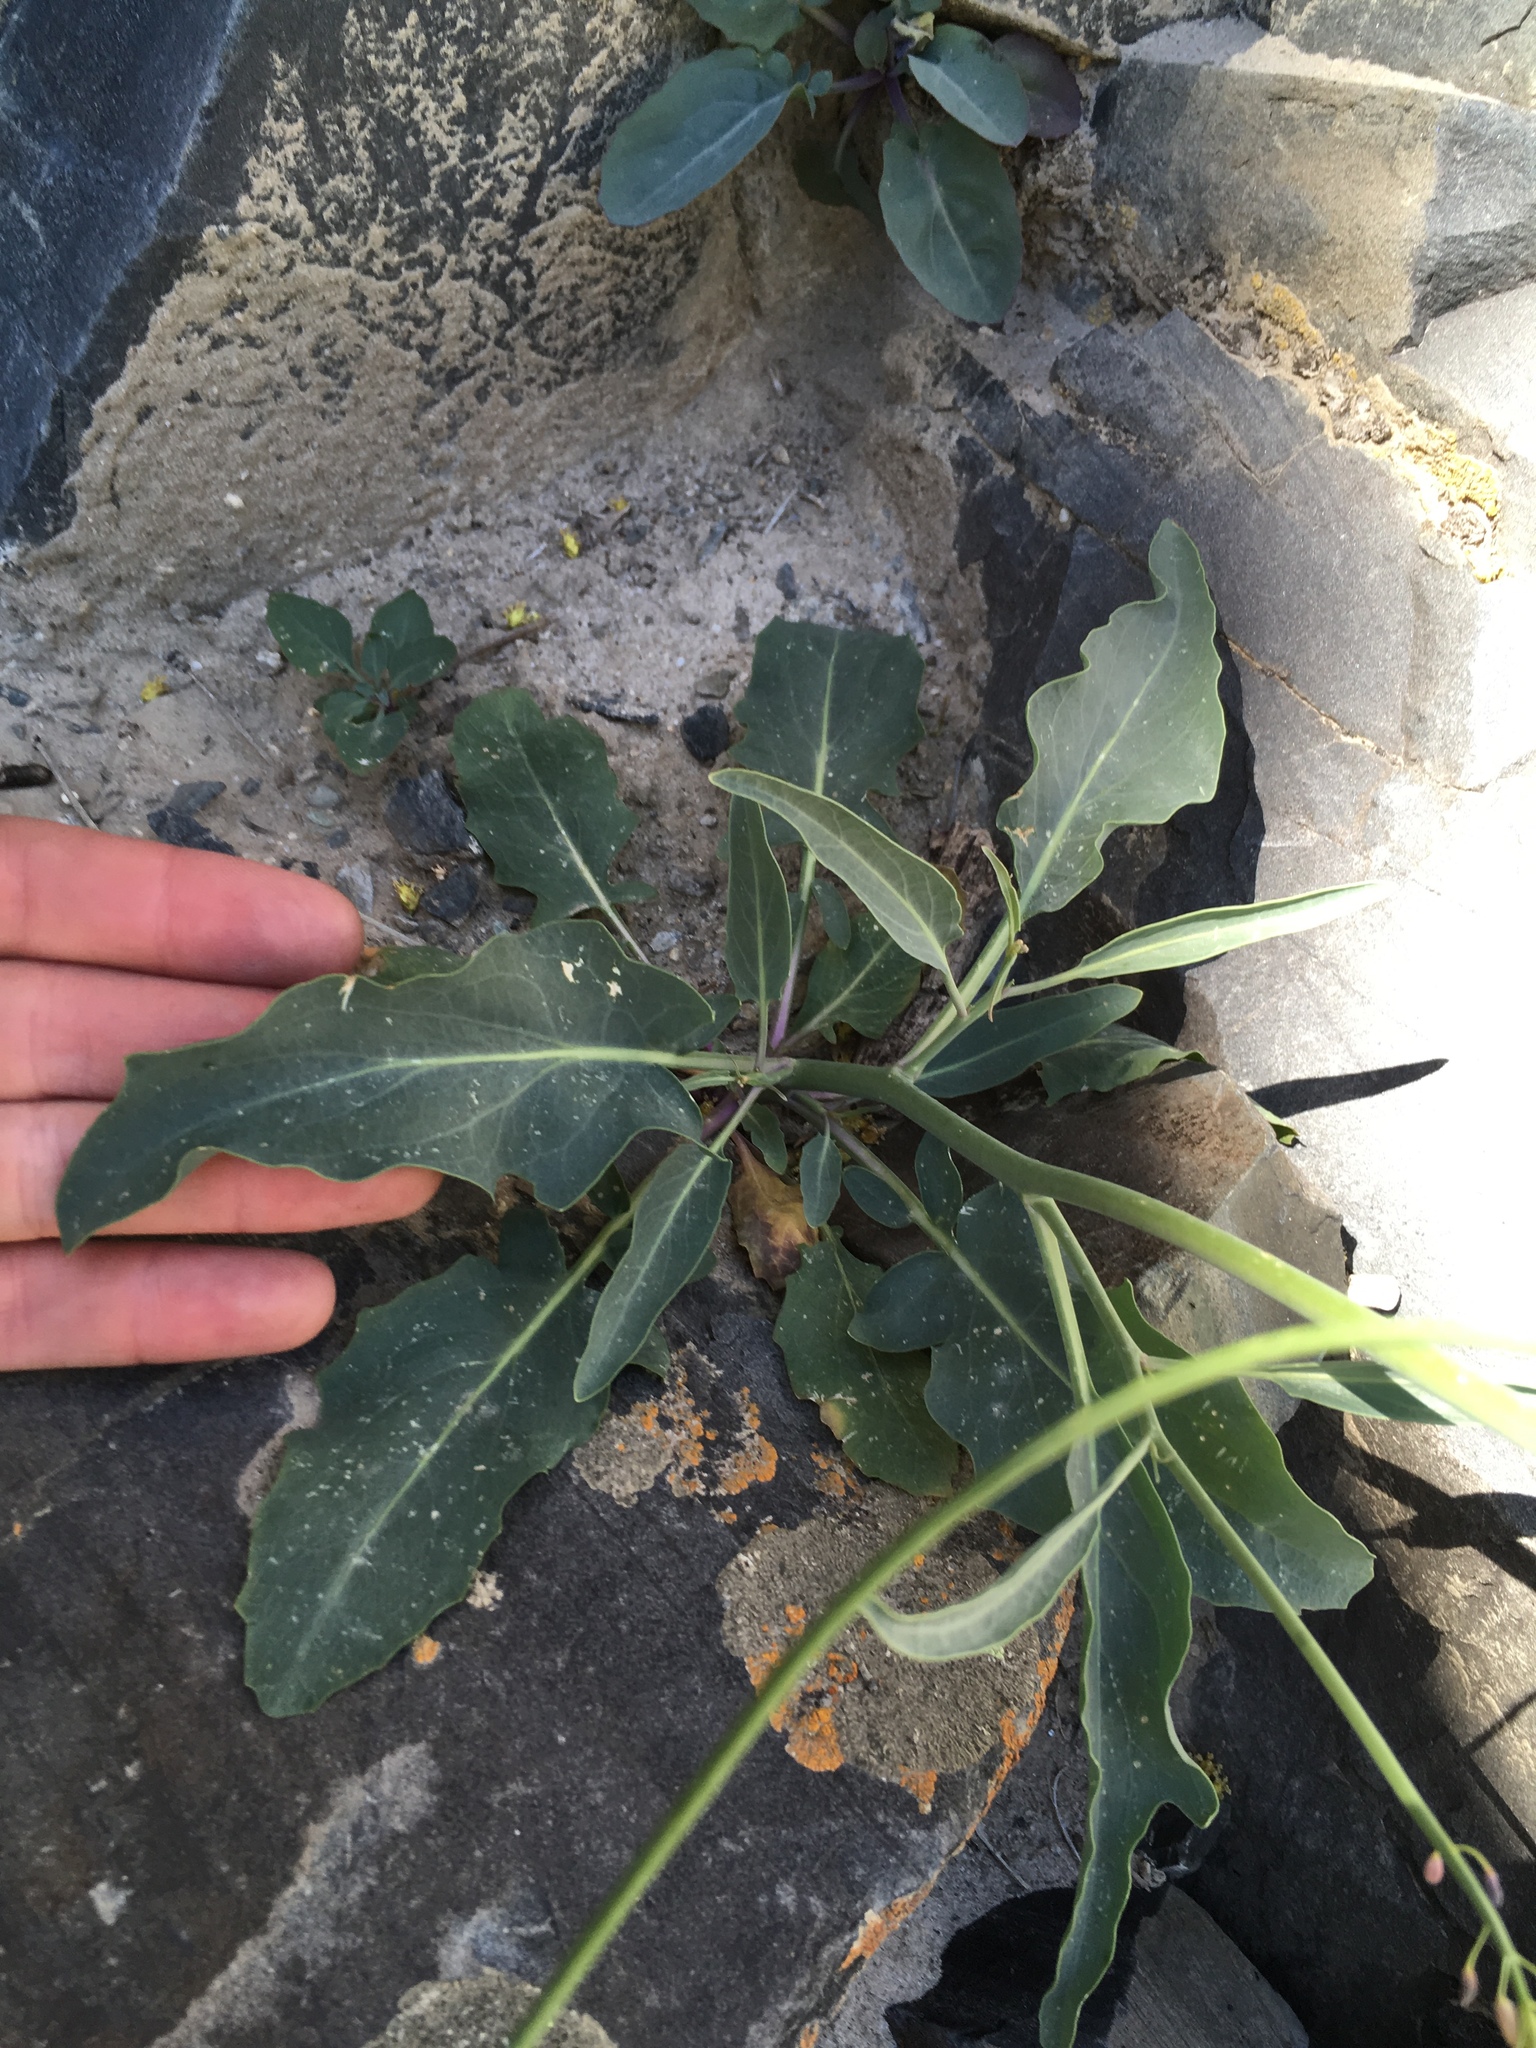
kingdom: Plantae
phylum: Tracheophyta
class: Magnoliopsida
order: Brassicales
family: Brassicaceae
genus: Streptanthus
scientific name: Streptanthus glaucus
